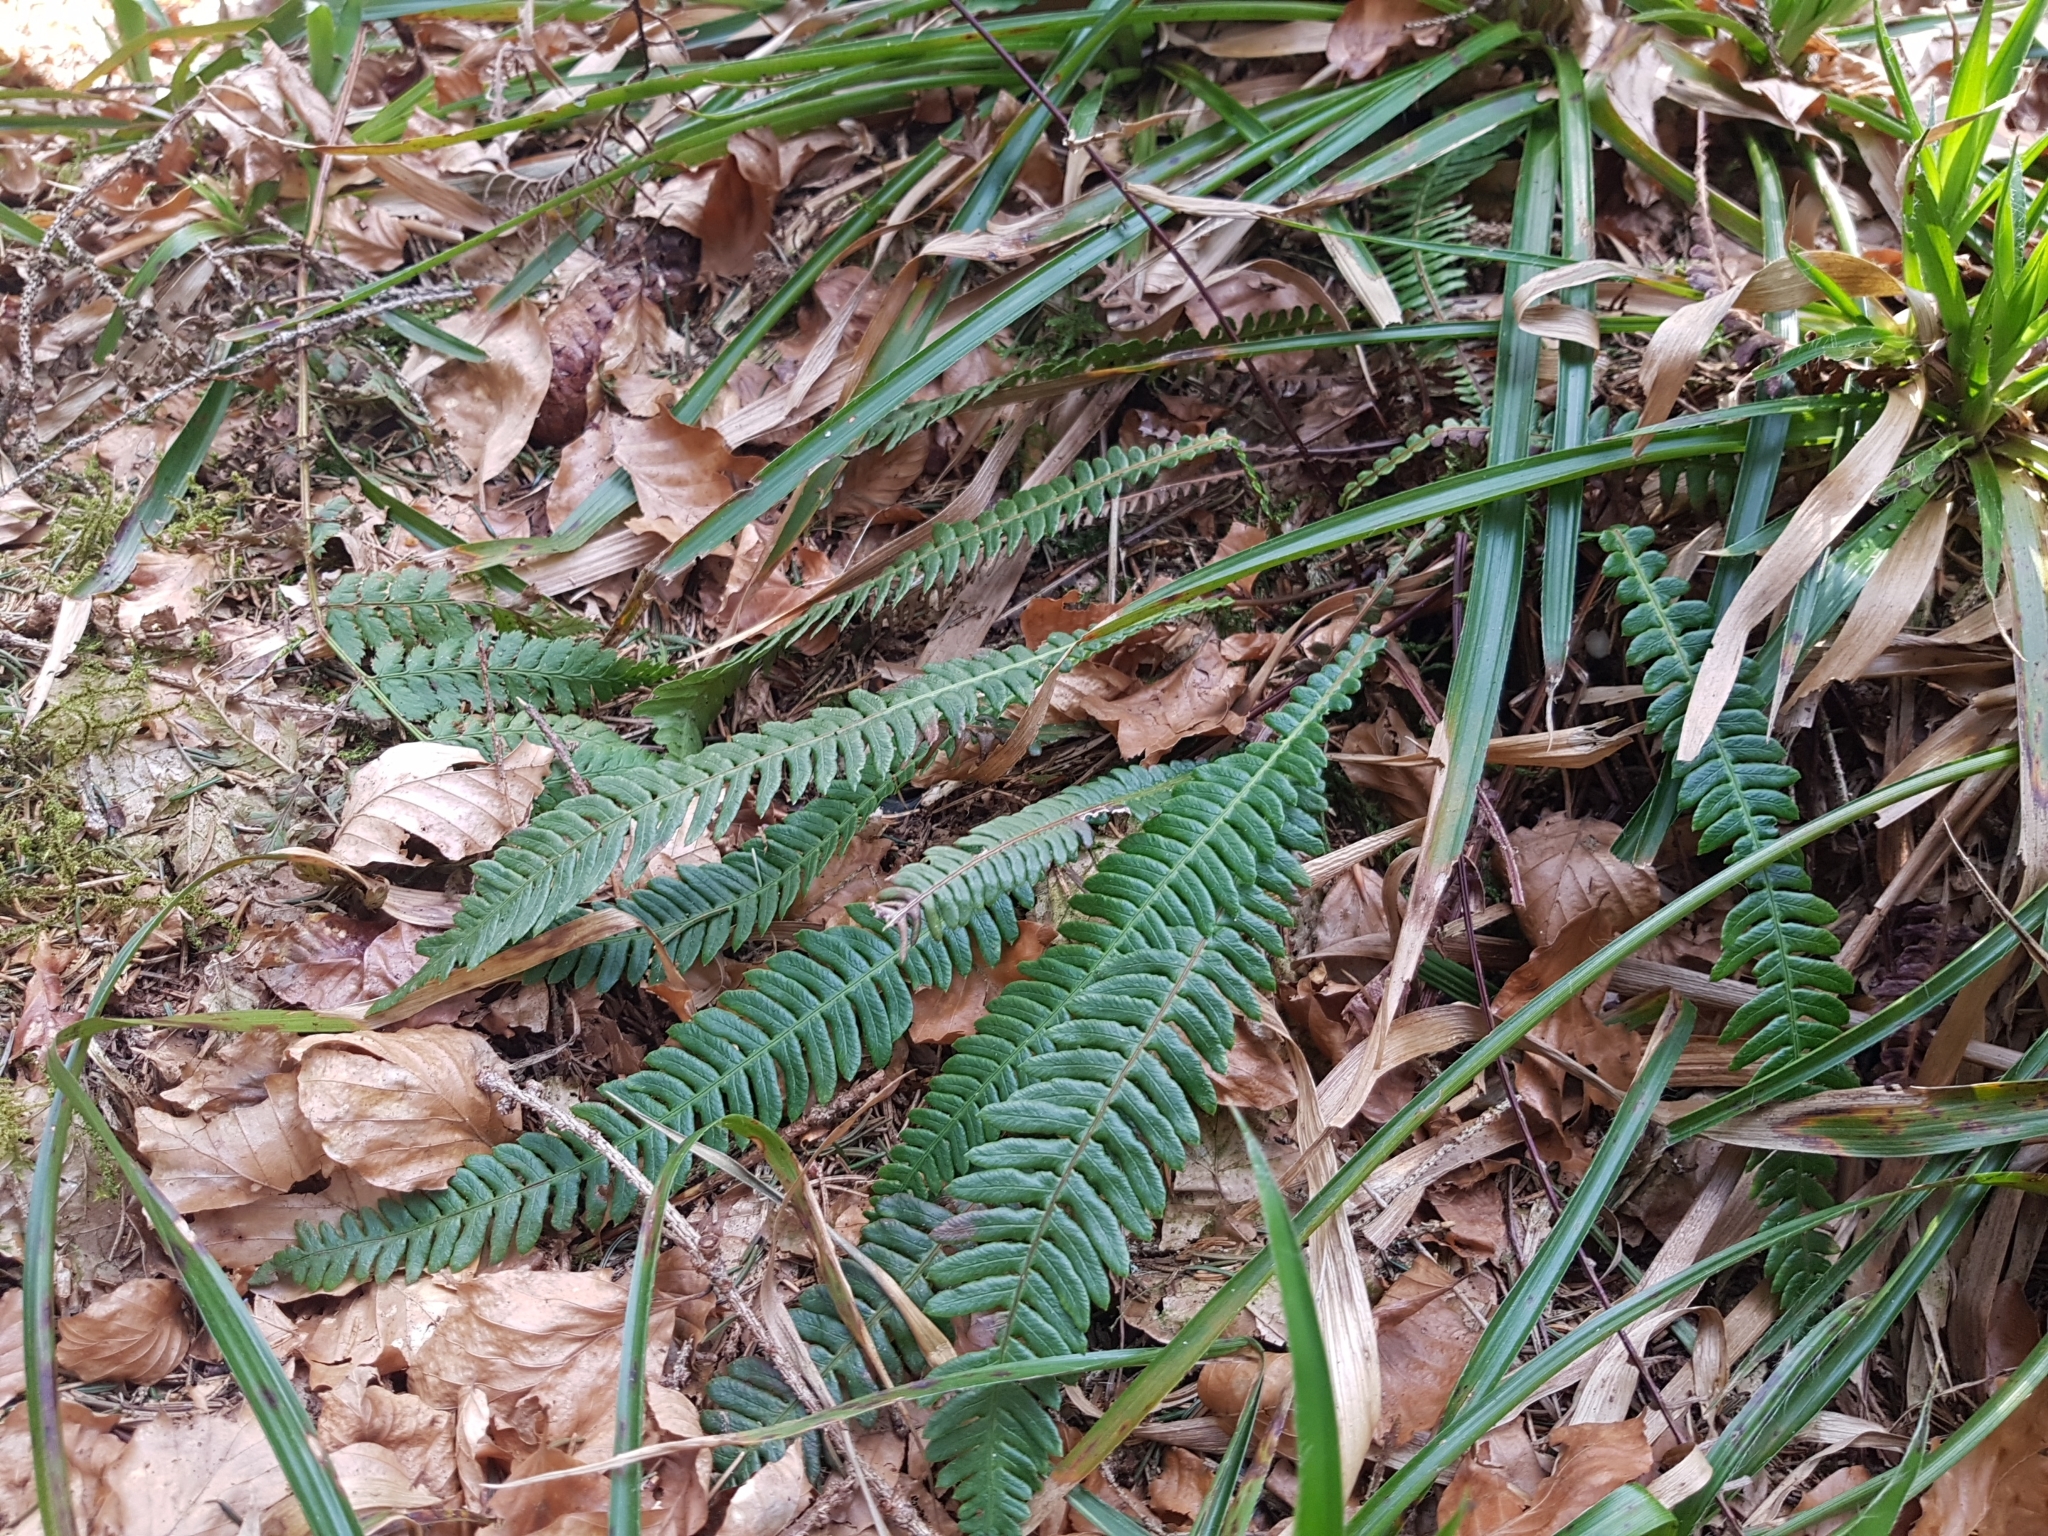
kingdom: Plantae
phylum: Tracheophyta
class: Polypodiopsida
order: Polypodiales
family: Blechnaceae
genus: Struthiopteris
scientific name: Struthiopteris spicant
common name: Deer fern
